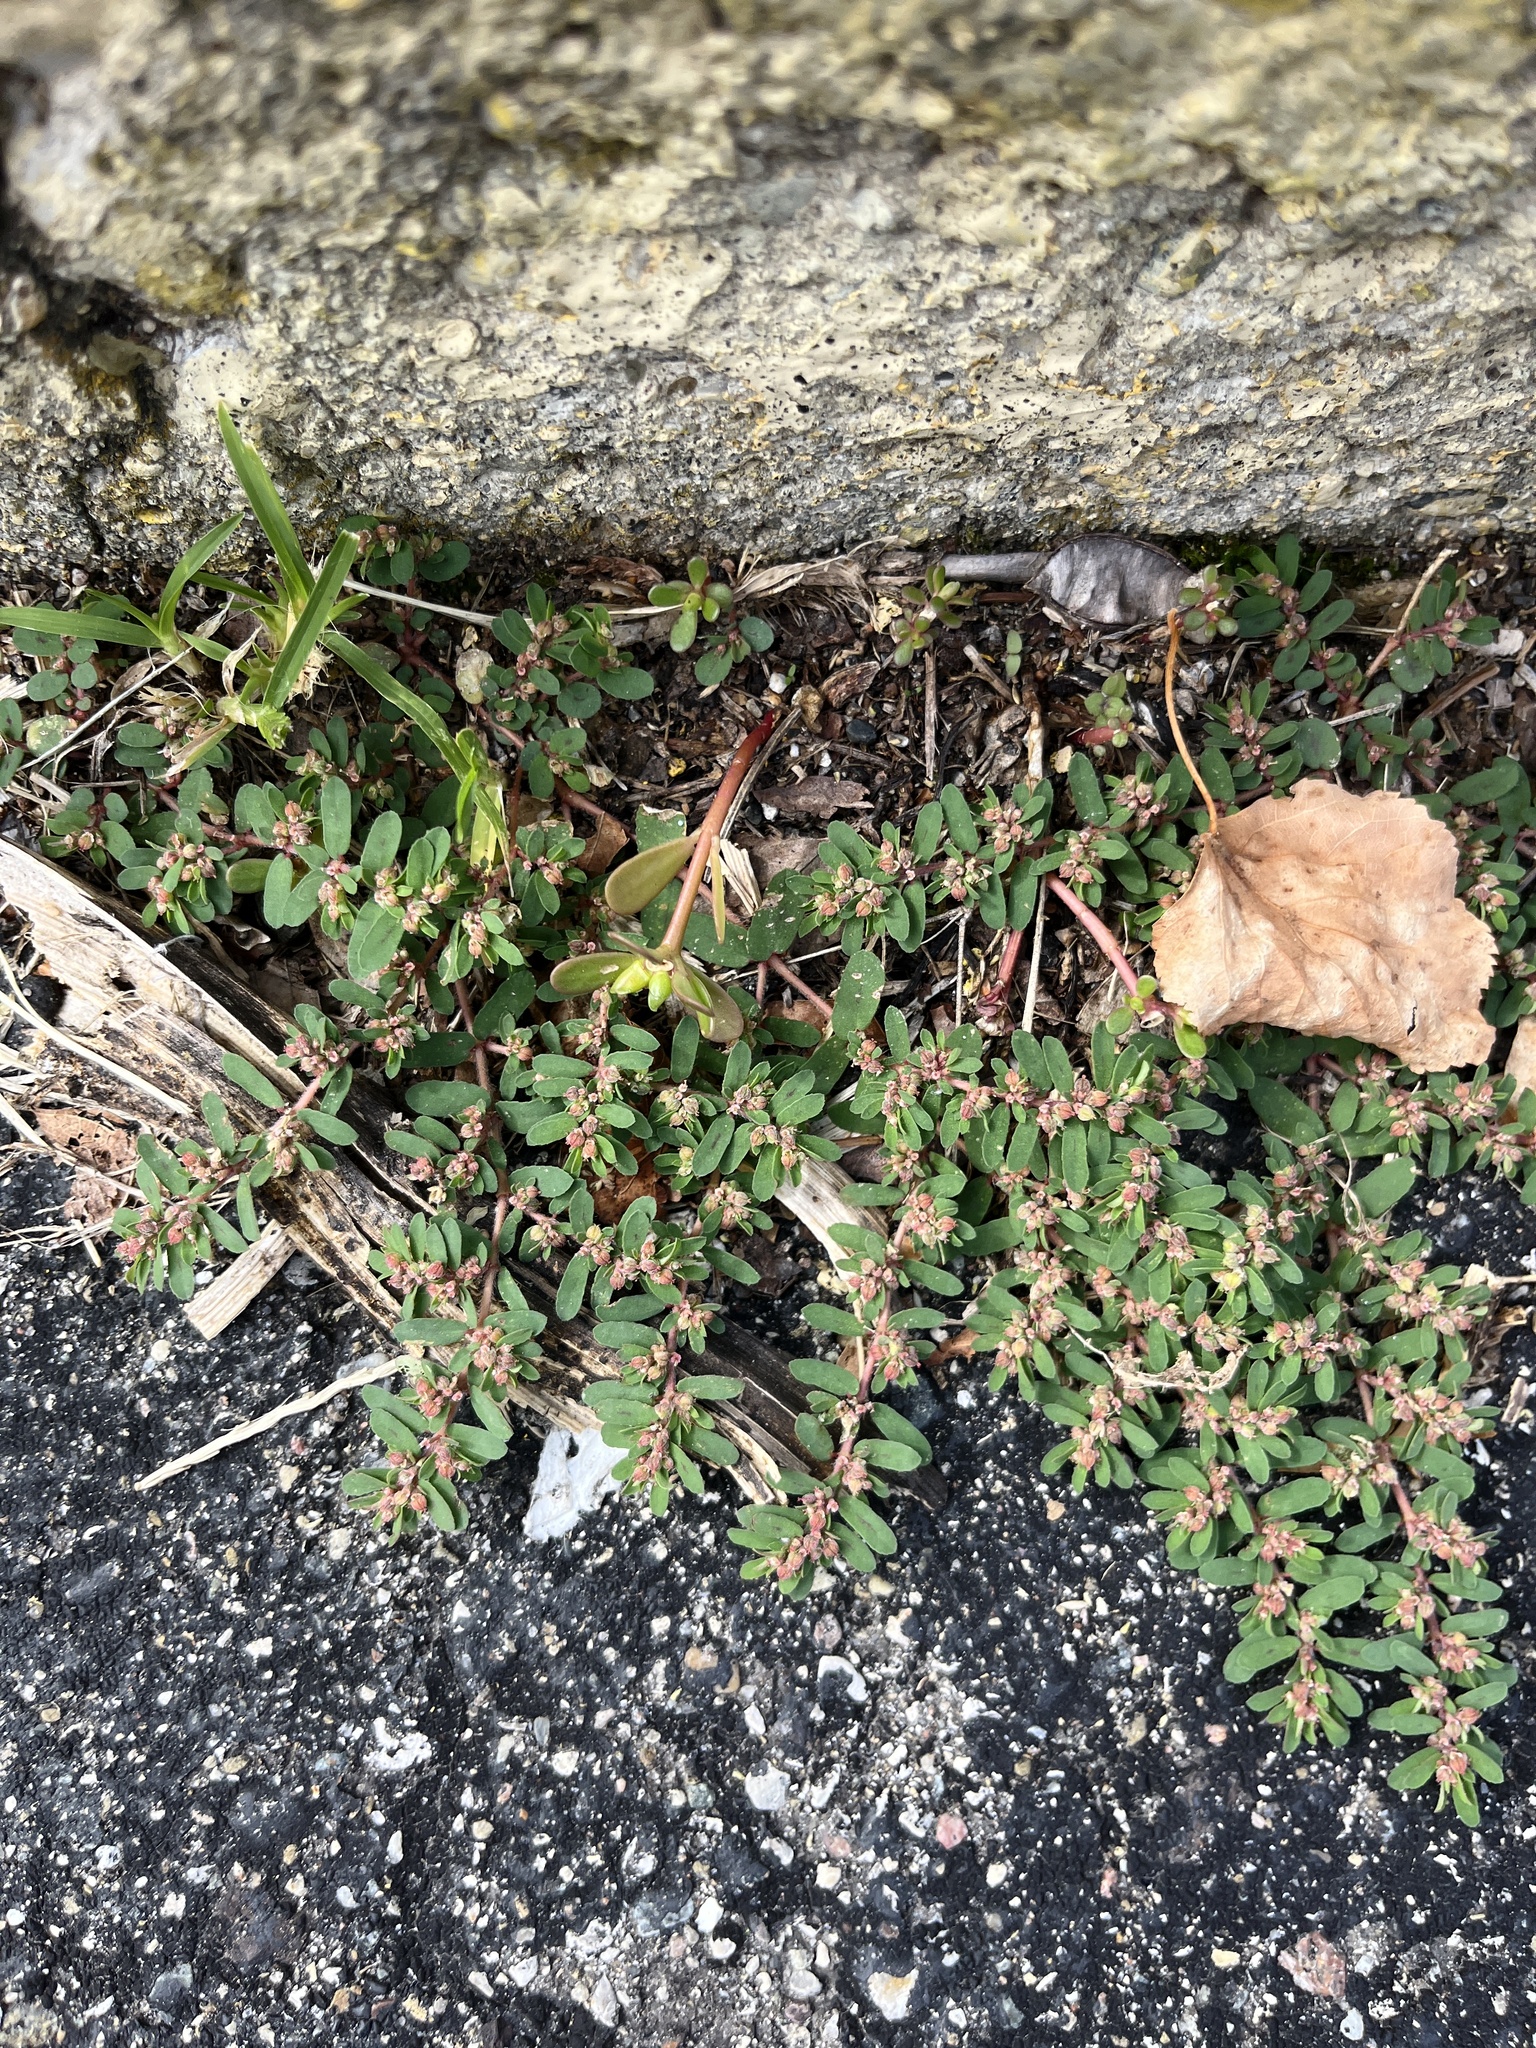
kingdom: Plantae
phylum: Tracheophyta
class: Magnoliopsida
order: Malpighiales
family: Euphorbiaceae
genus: Euphorbia
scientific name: Euphorbia maculata
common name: Spotted spurge
